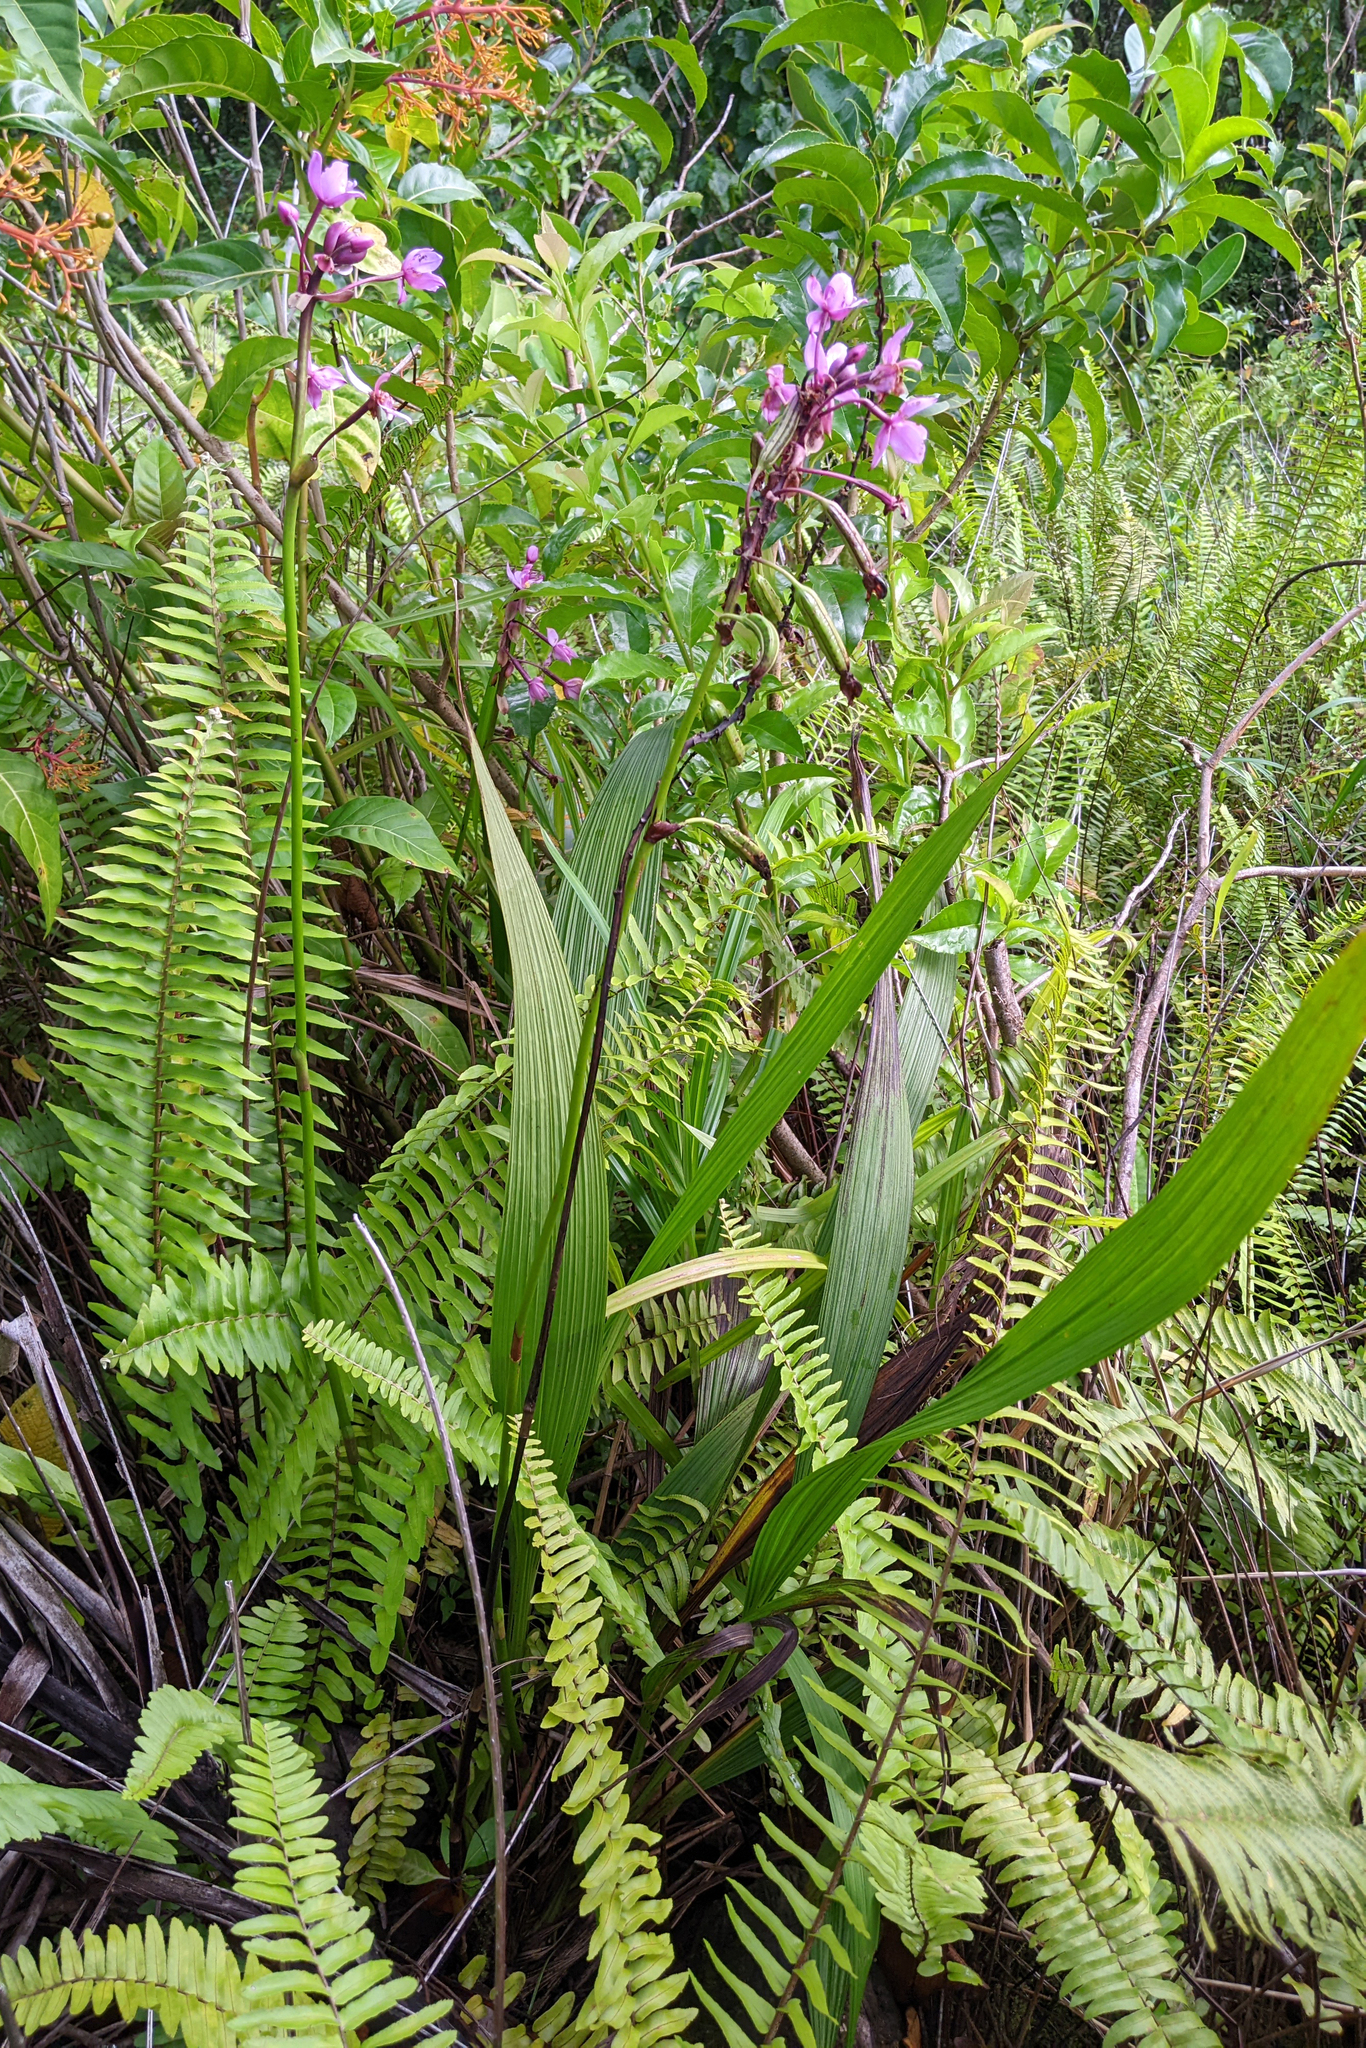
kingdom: Plantae
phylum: Tracheophyta
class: Liliopsida
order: Asparagales
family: Orchidaceae
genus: Spathoglottis
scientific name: Spathoglottis plicata
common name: Philippine ground orchid
